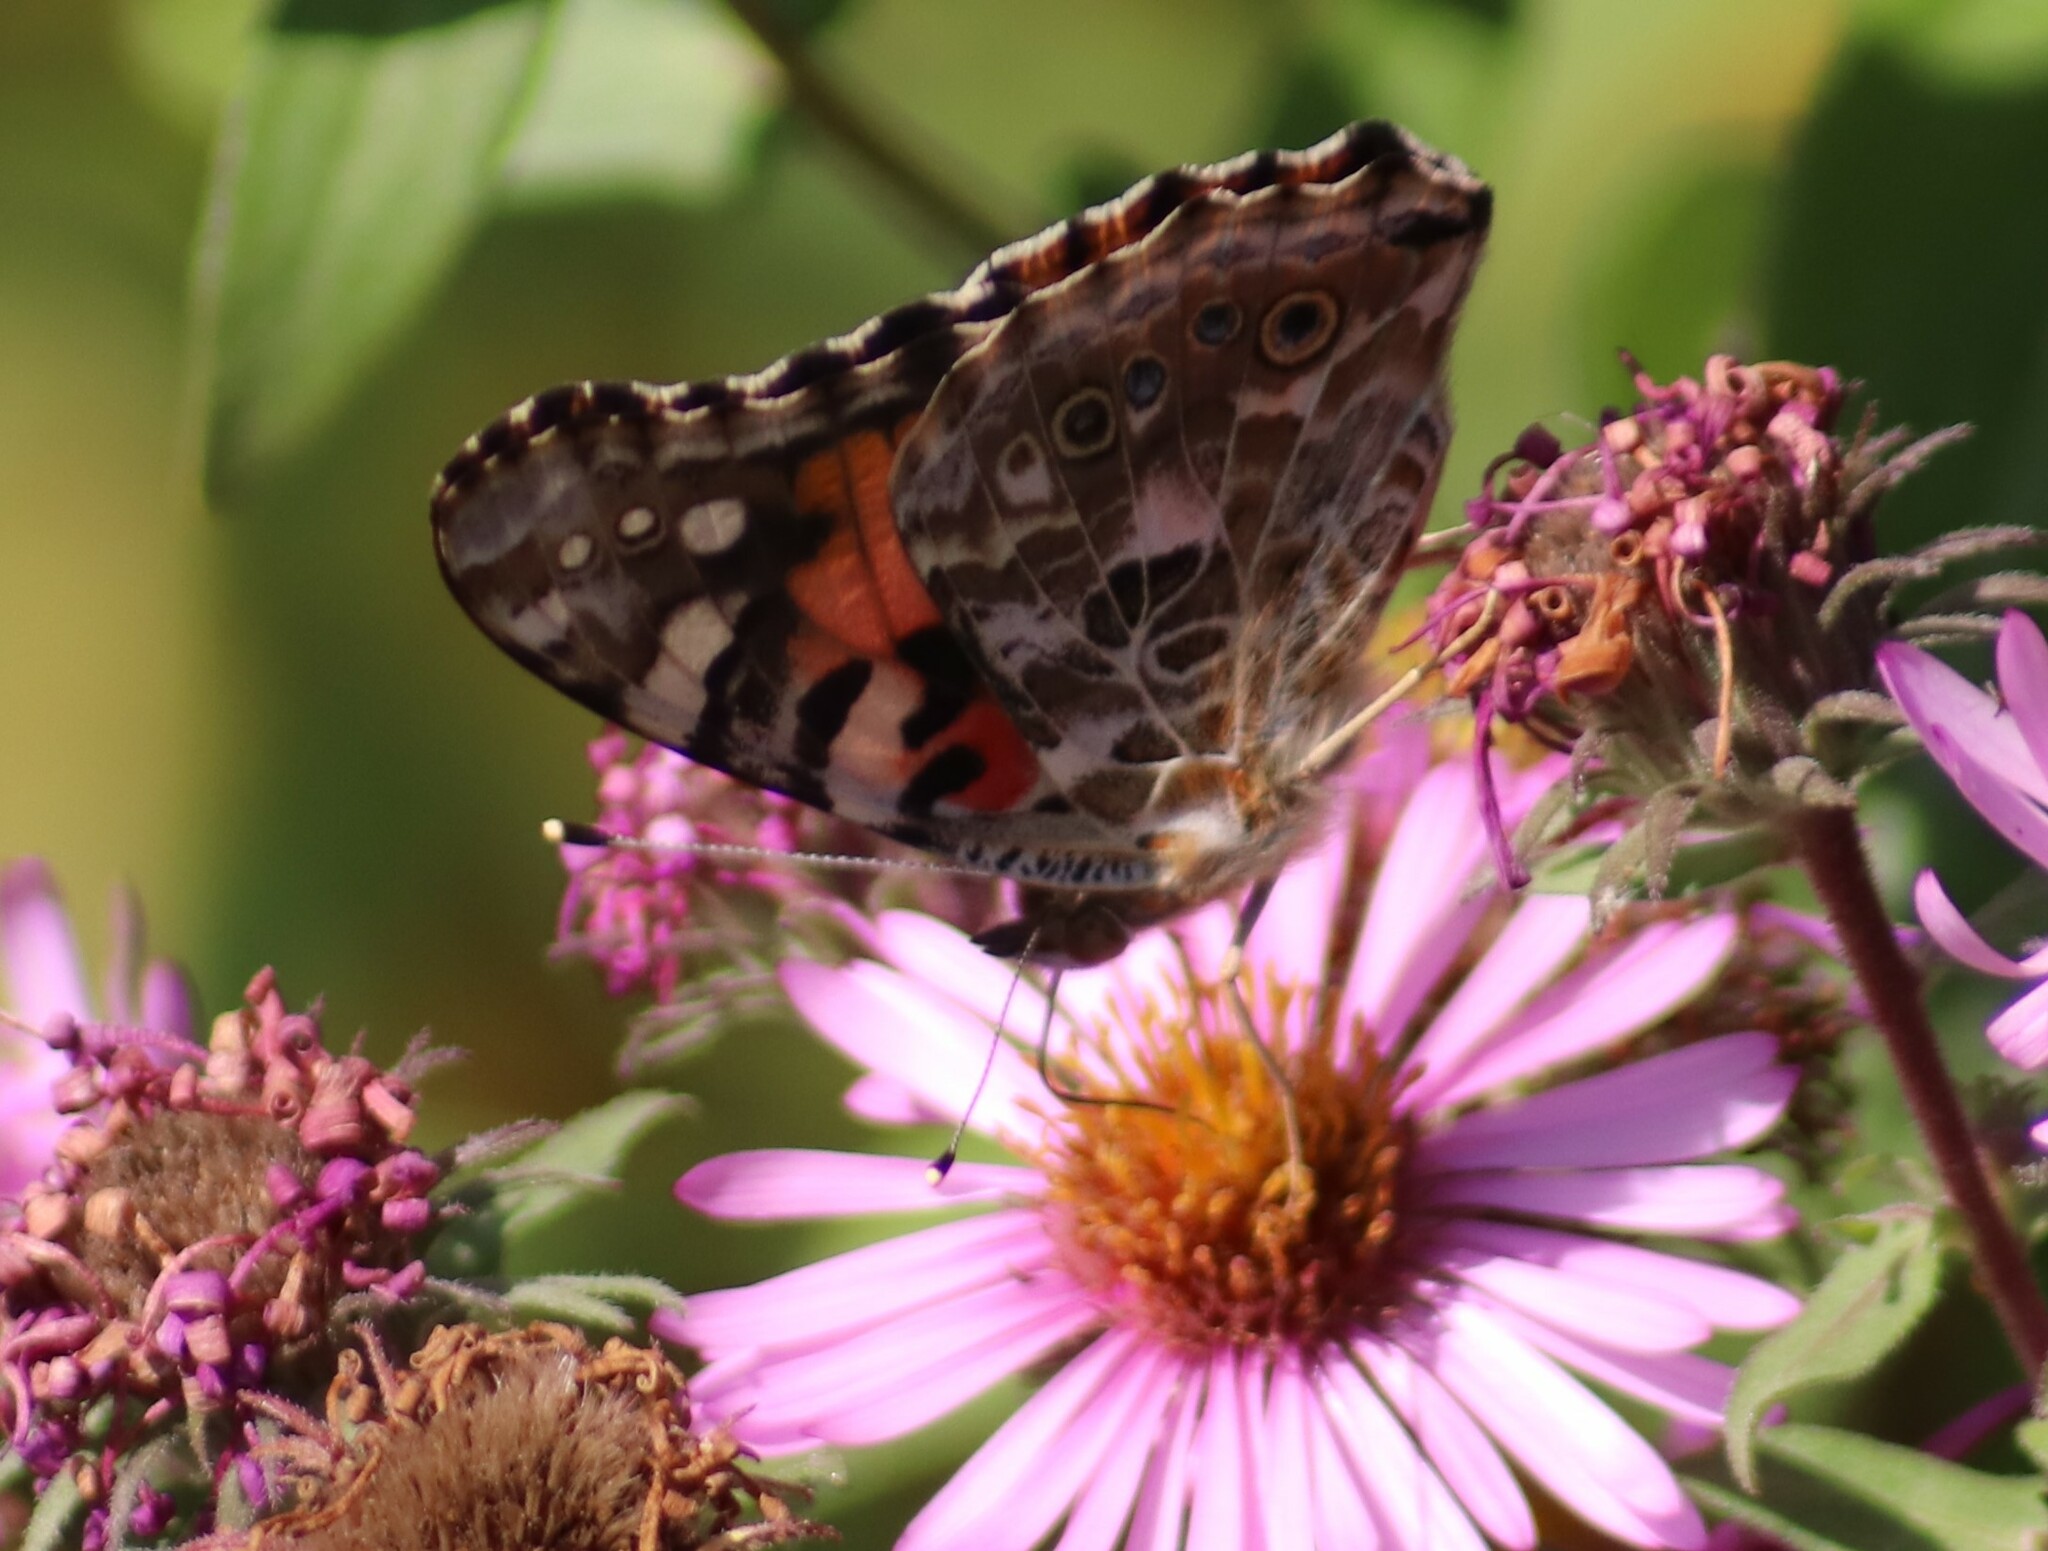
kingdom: Animalia
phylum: Arthropoda
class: Insecta
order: Lepidoptera
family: Nymphalidae
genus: Vanessa
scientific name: Vanessa cardui
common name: Painted lady
